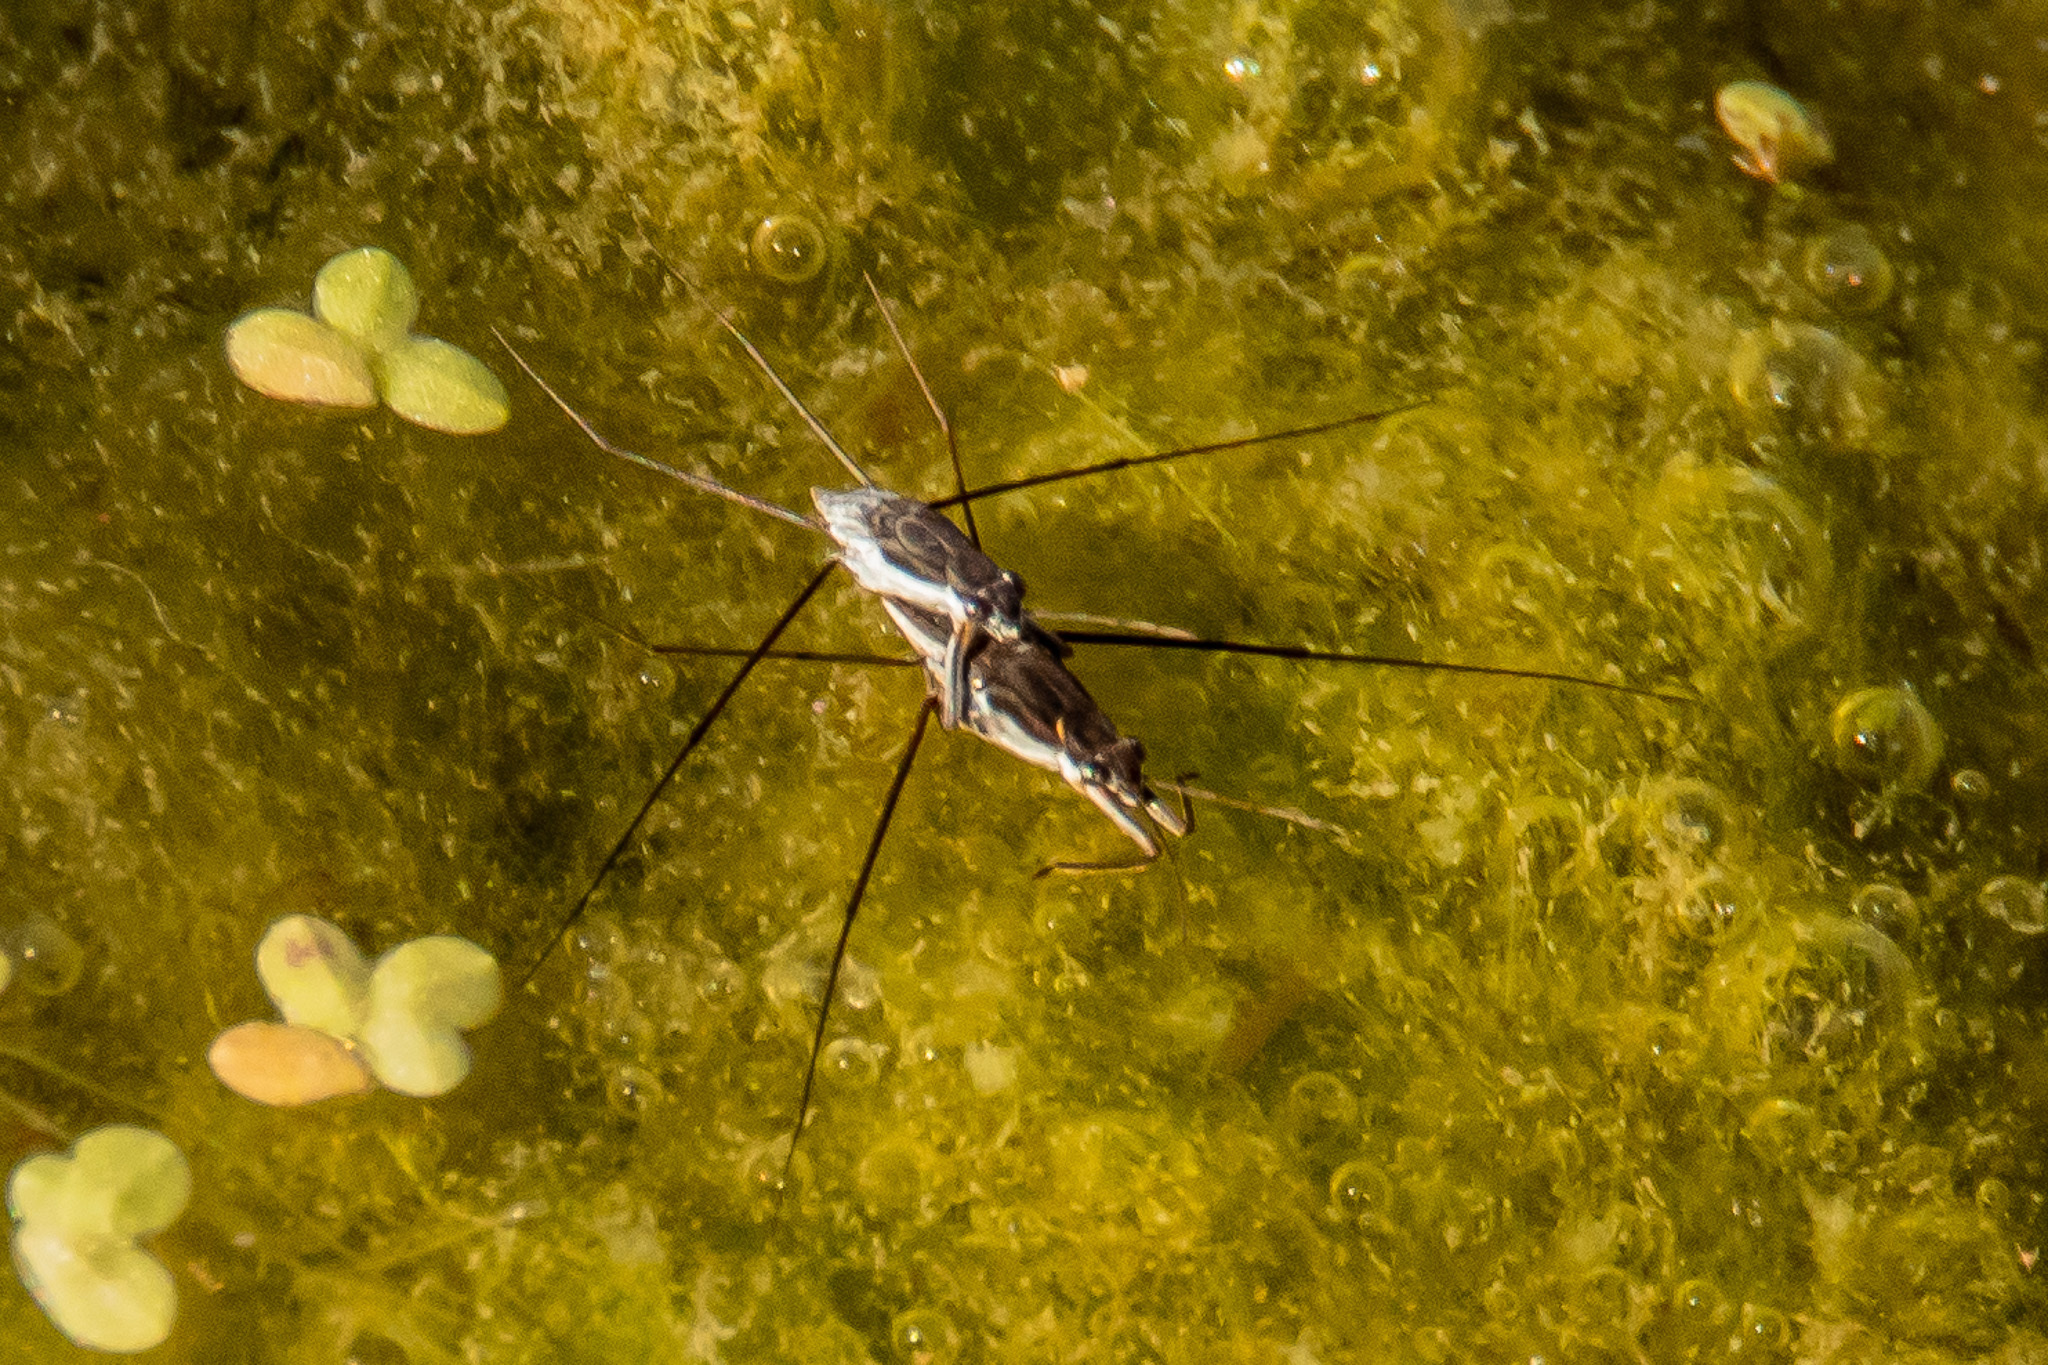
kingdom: Animalia
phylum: Arthropoda
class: Insecta
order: Hemiptera
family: Gerridae
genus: Neogerris
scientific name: Neogerris hesione
